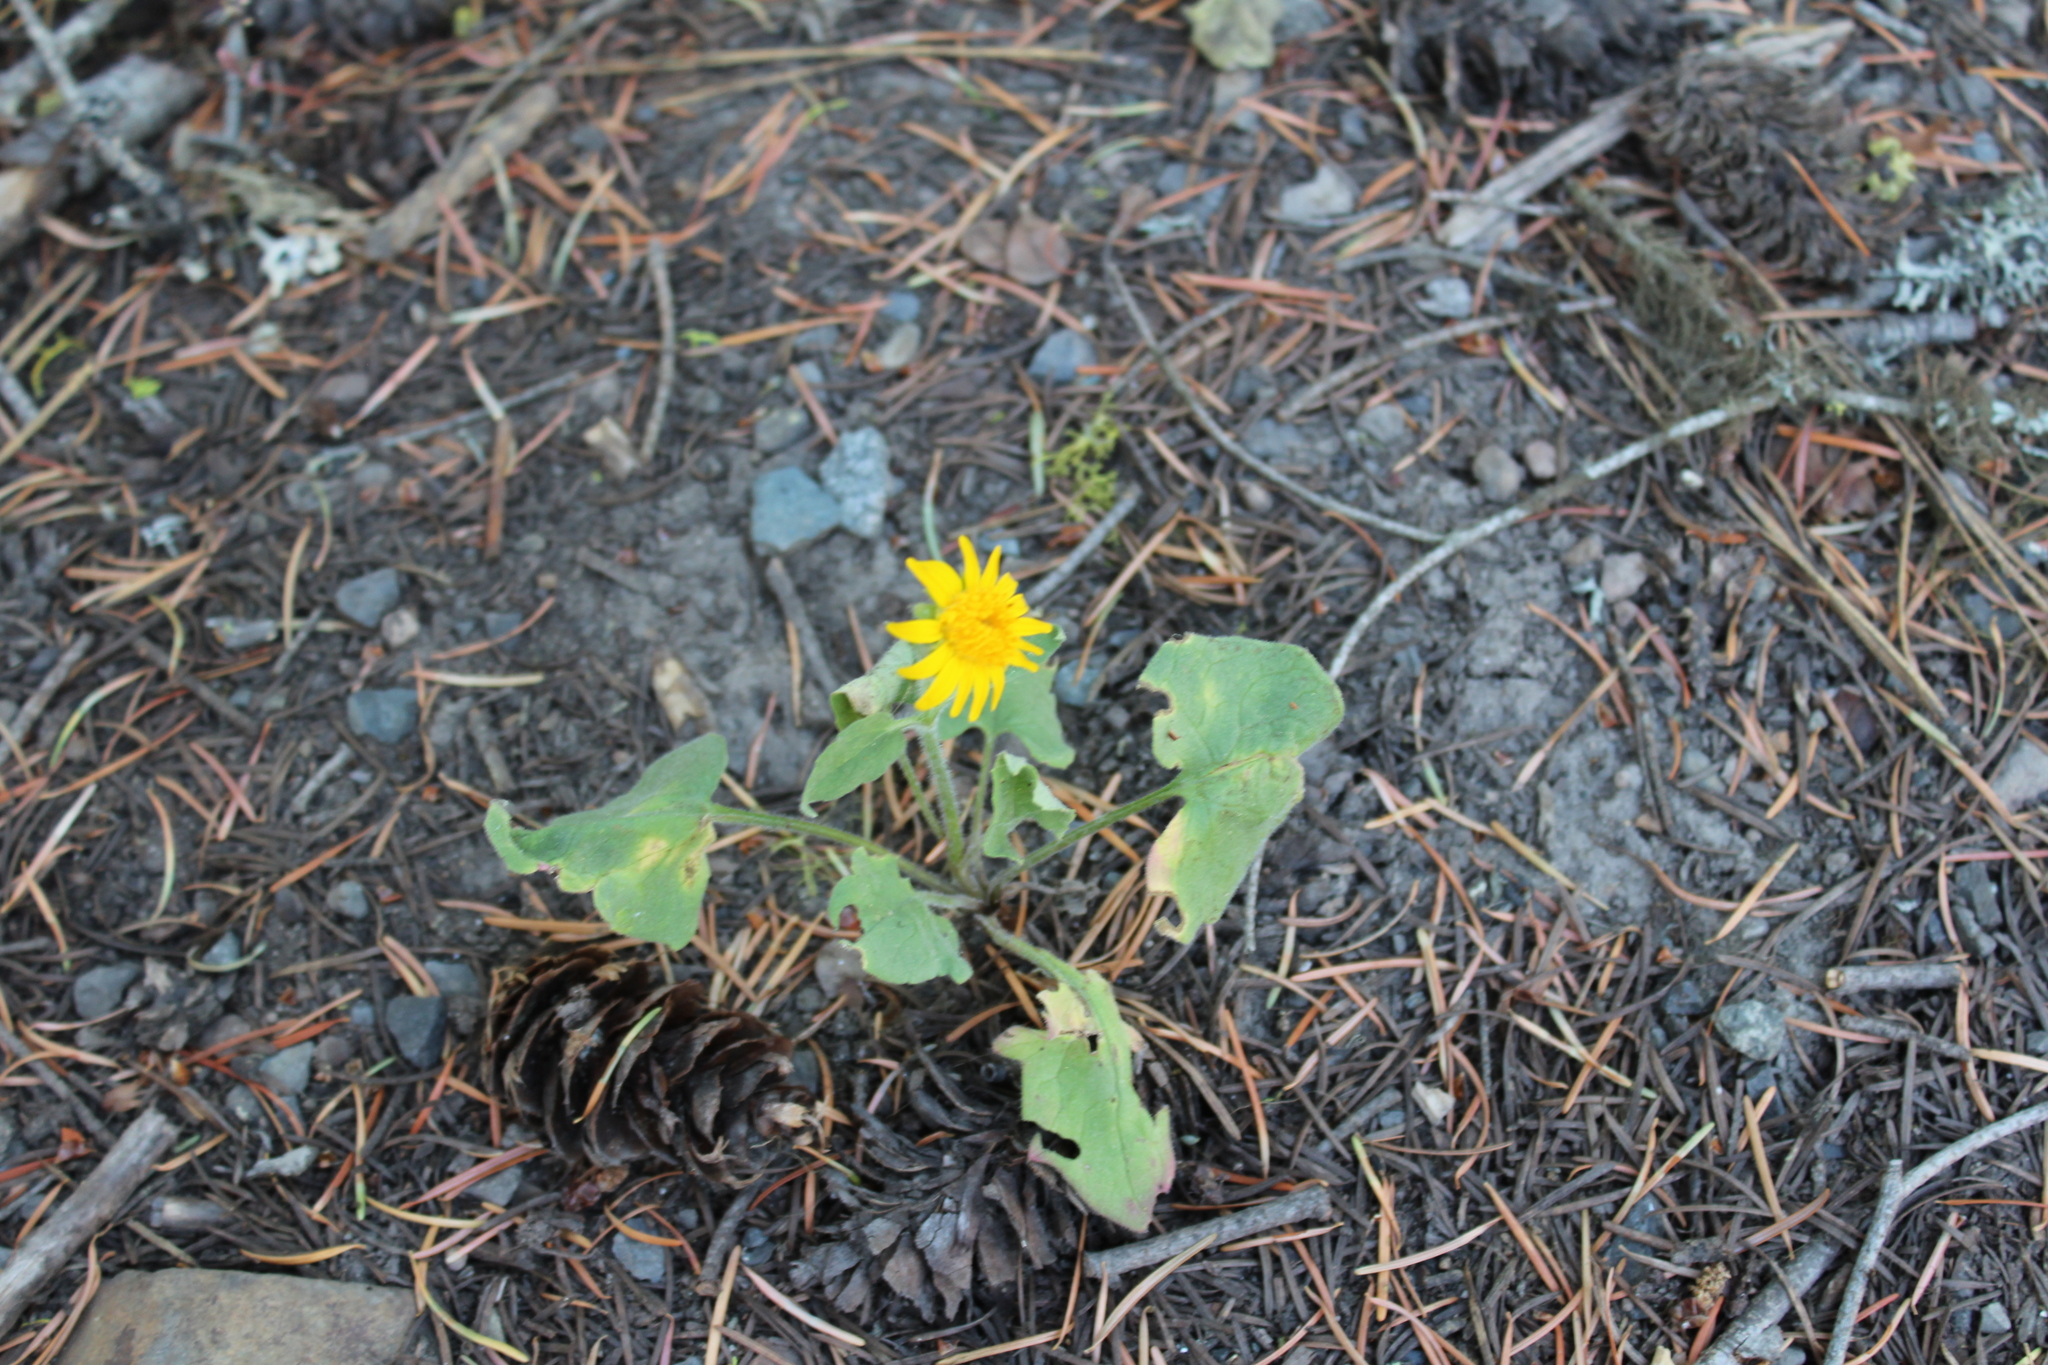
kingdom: Plantae
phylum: Tracheophyta
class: Magnoliopsida
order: Asterales
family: Asteraceae
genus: Wyethia
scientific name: Wyethia sagittata
